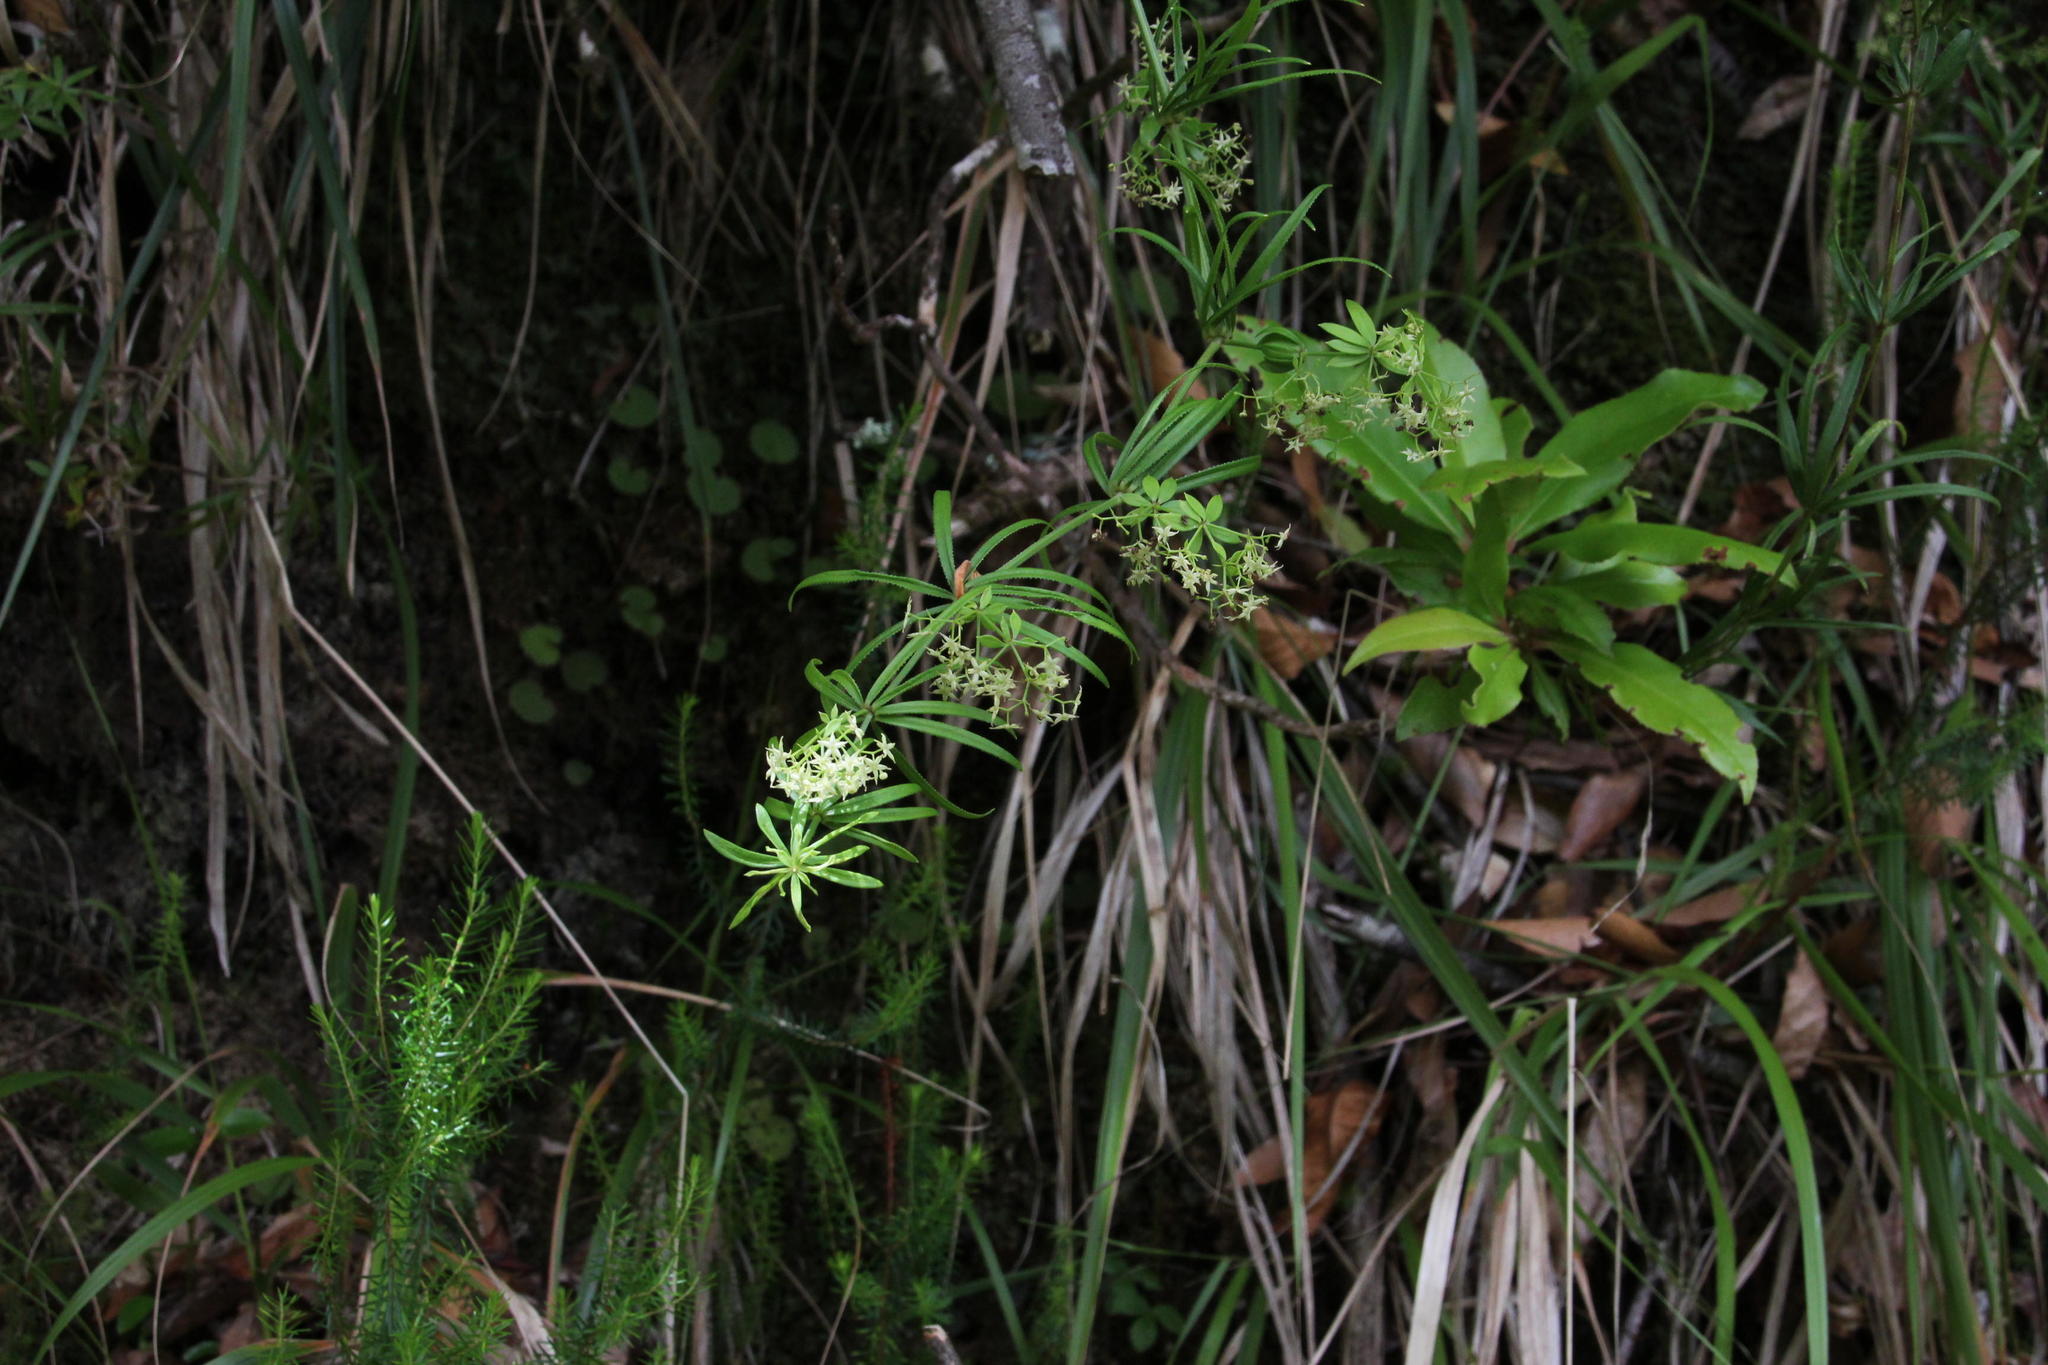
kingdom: Plantae
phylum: Tracheophyta
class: Magnoliopsida
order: Gentianales
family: Rubiaceae
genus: Rubia
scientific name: Rubia occidens
